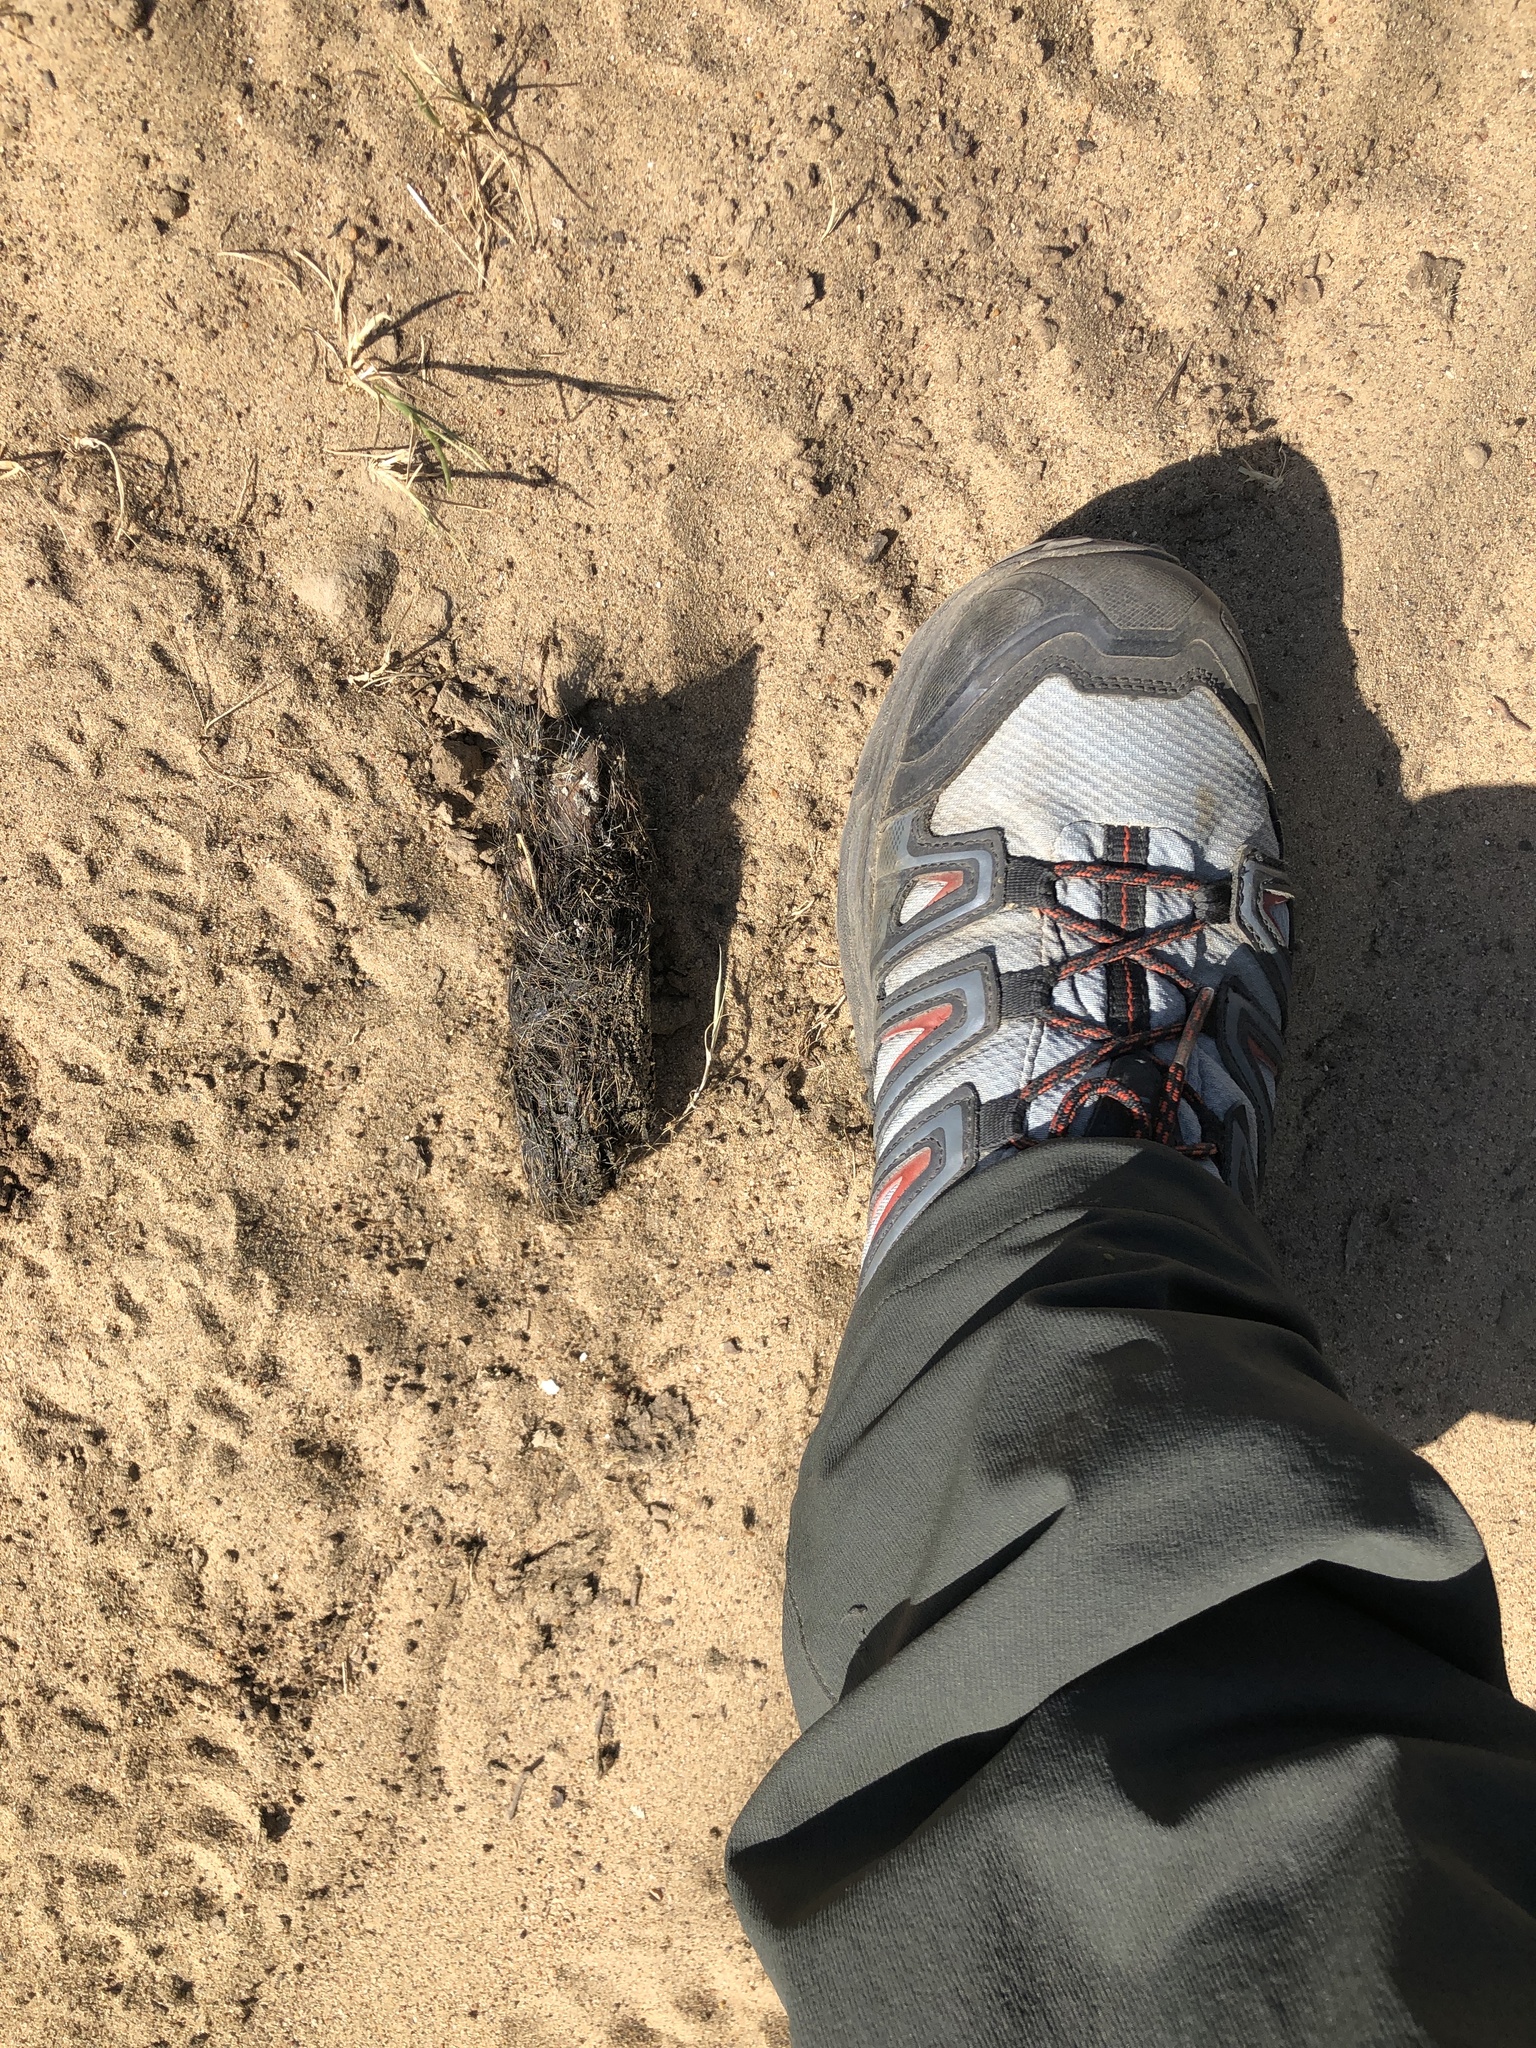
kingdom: Animalia
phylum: Chordata
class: Mammalia
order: Carnivora
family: Canidae
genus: Canis
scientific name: Canis lupus
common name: Gray wolf
